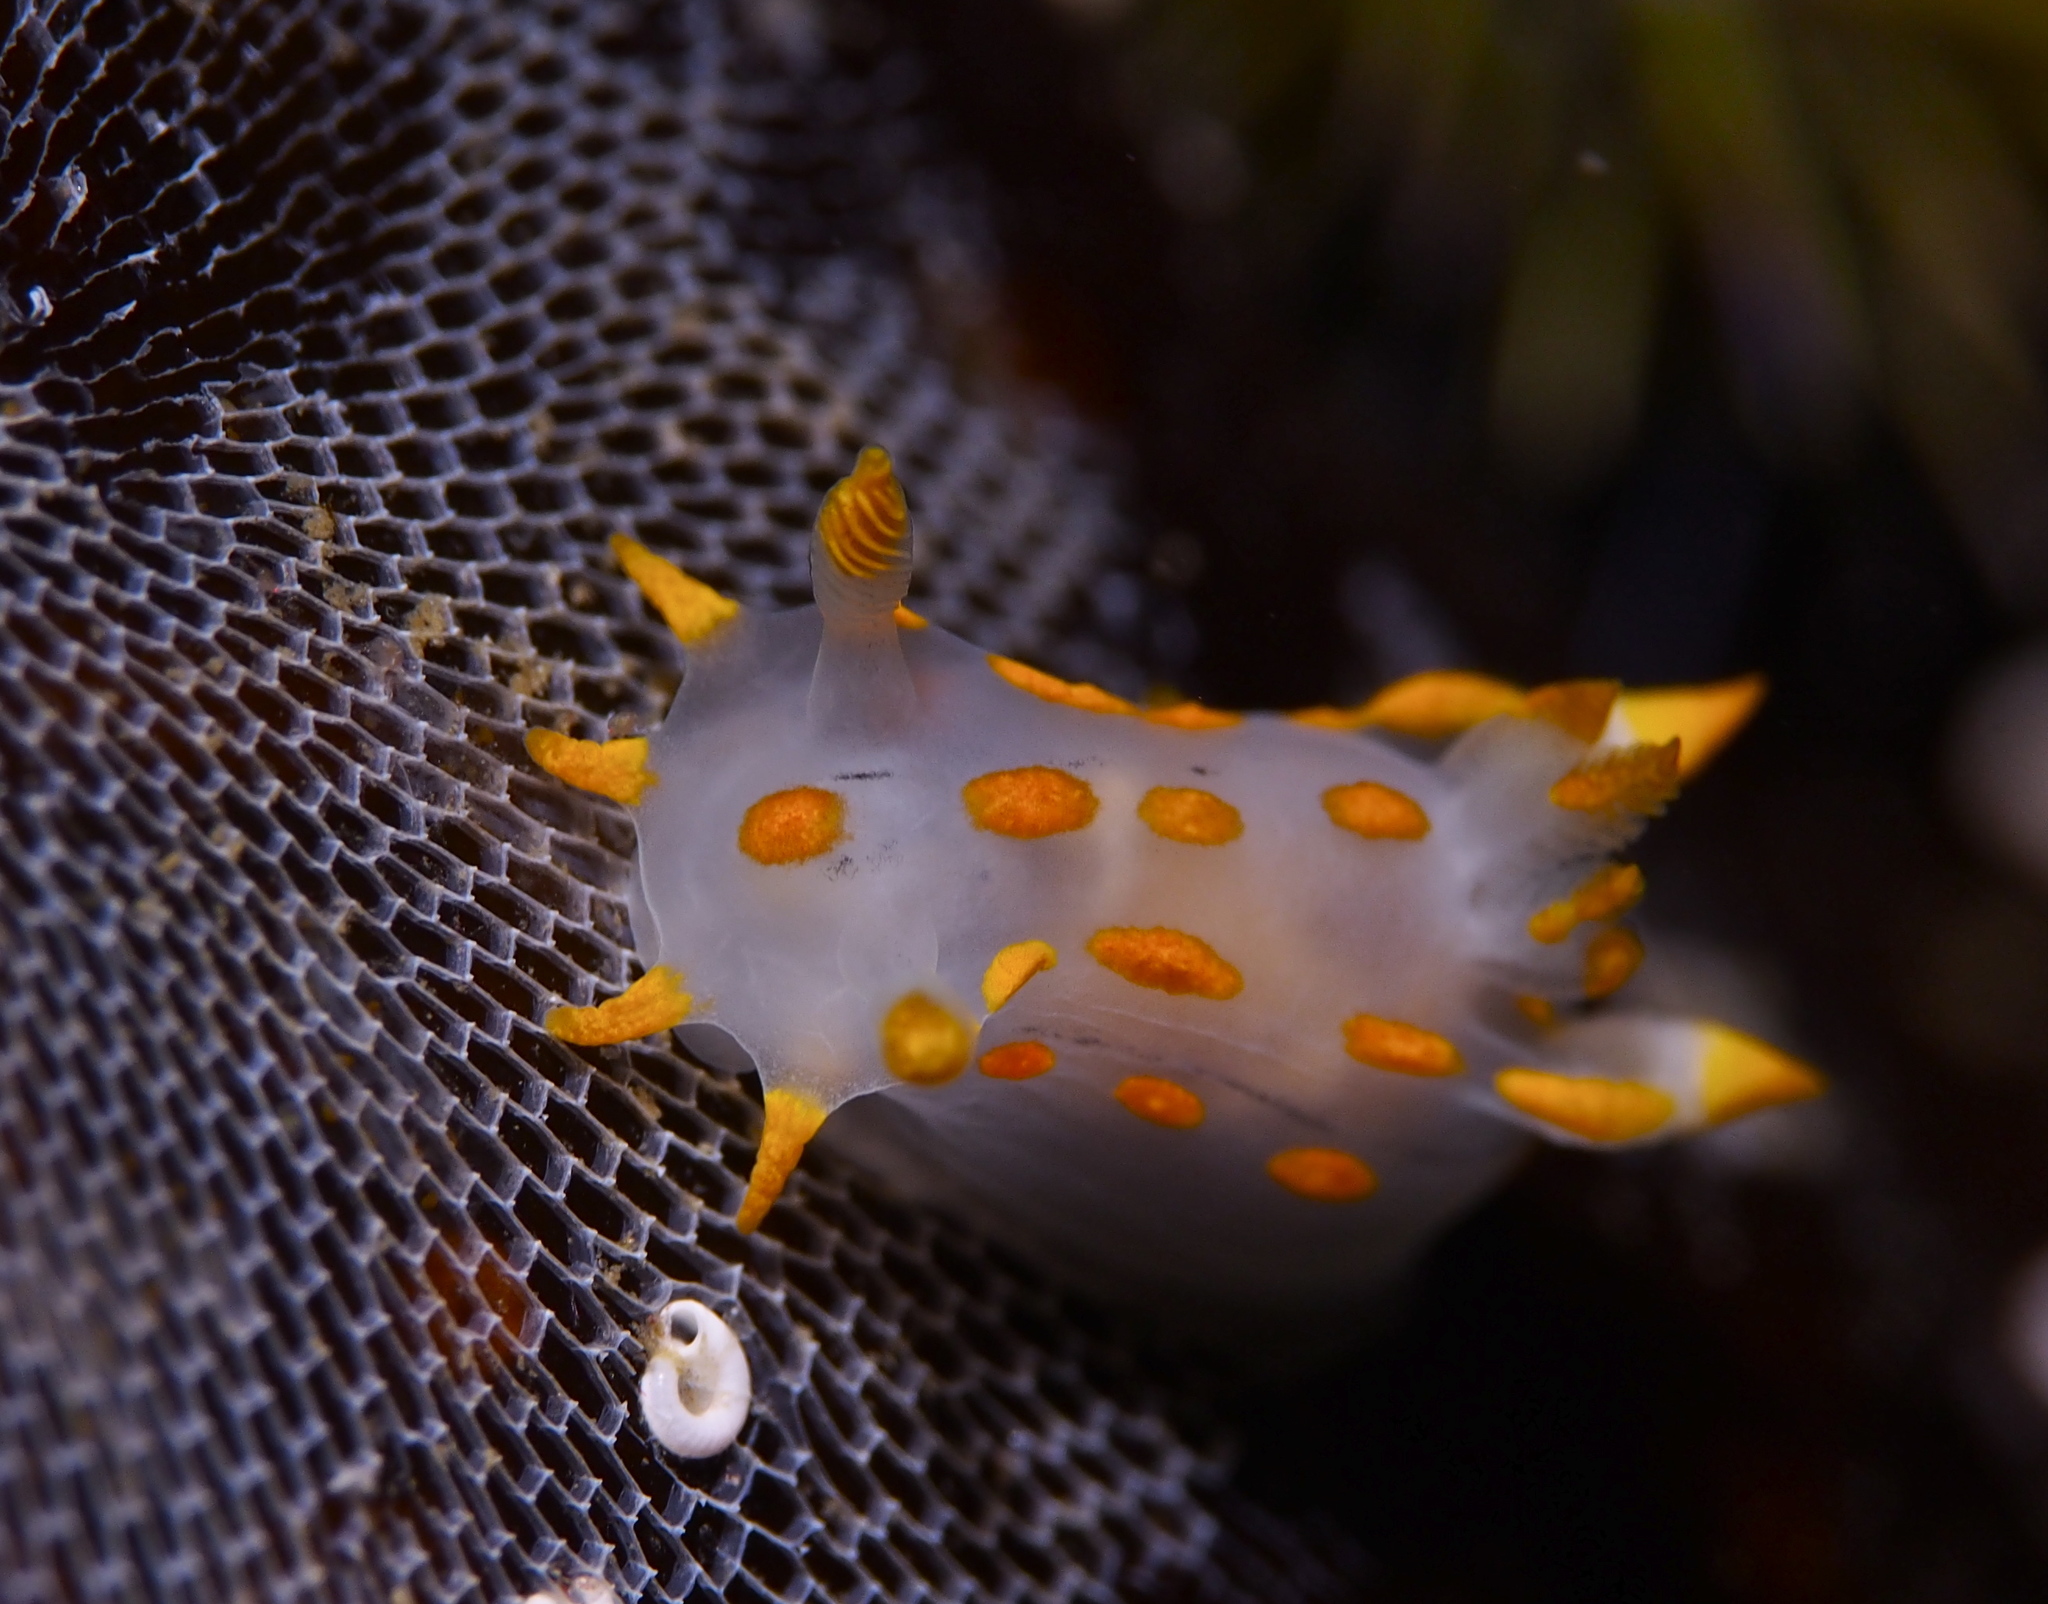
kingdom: Animalia
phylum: Mollusca
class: Gastropoda
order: Nudibranchia
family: Polyceridae
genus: Polycera
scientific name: Polycera quadrilineata
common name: Four-striped polycera
